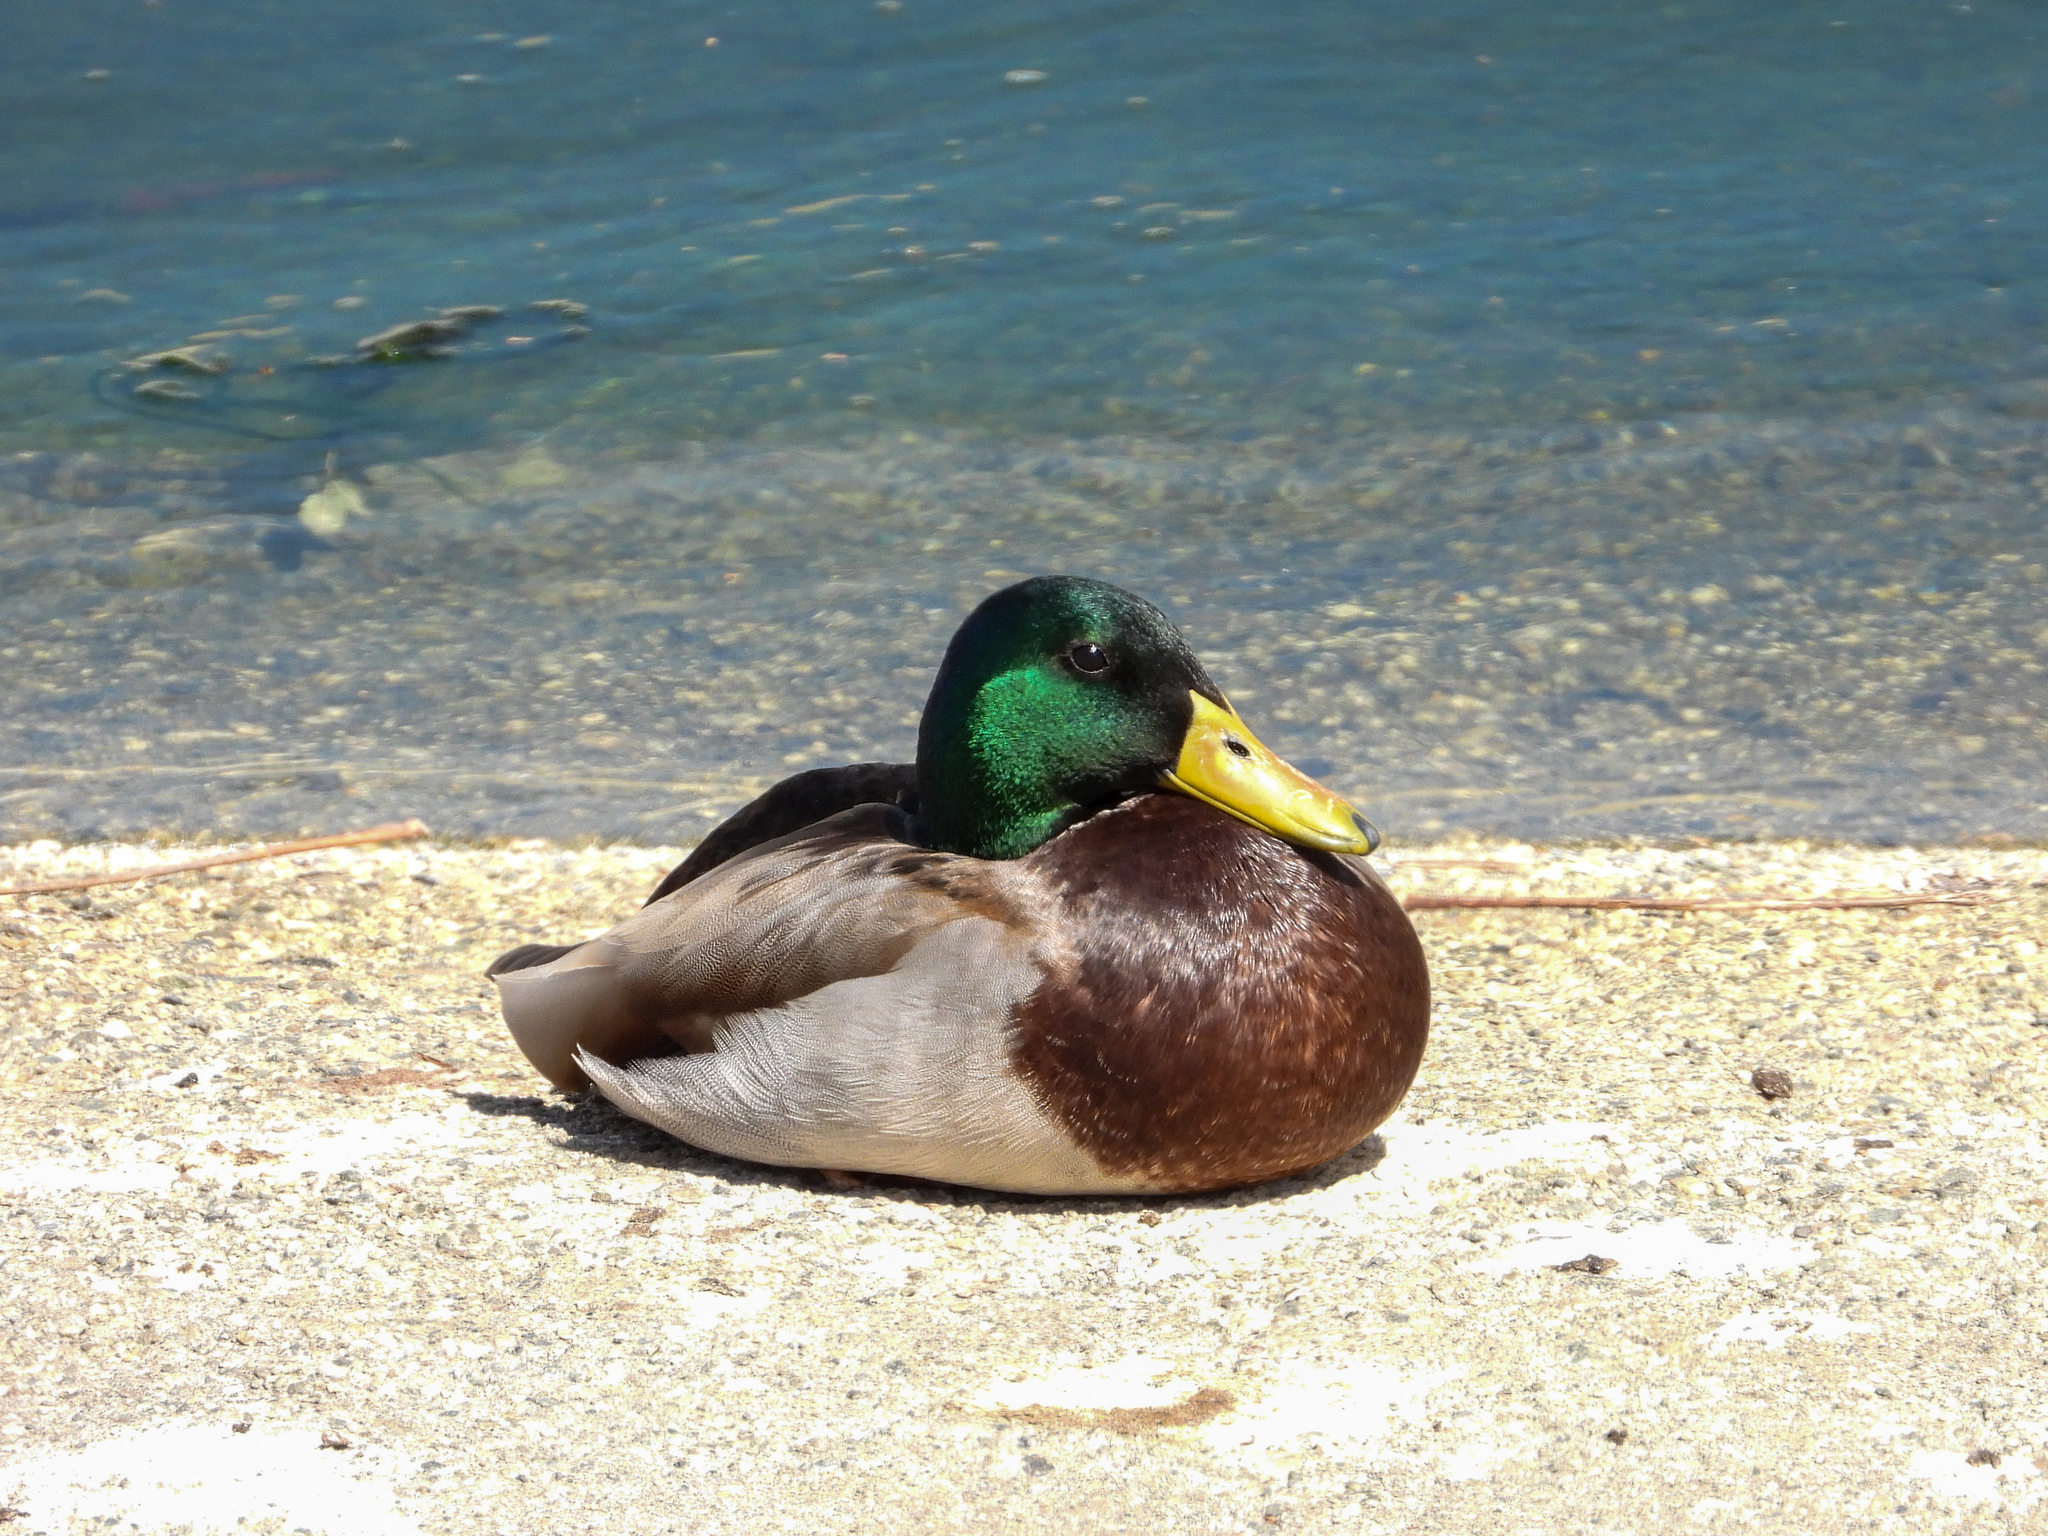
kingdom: Animalia
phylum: Chordata
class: Aves
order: Anseriformes
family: Anatidae
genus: Anas
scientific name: Anas platyrhynchos
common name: Mallard
